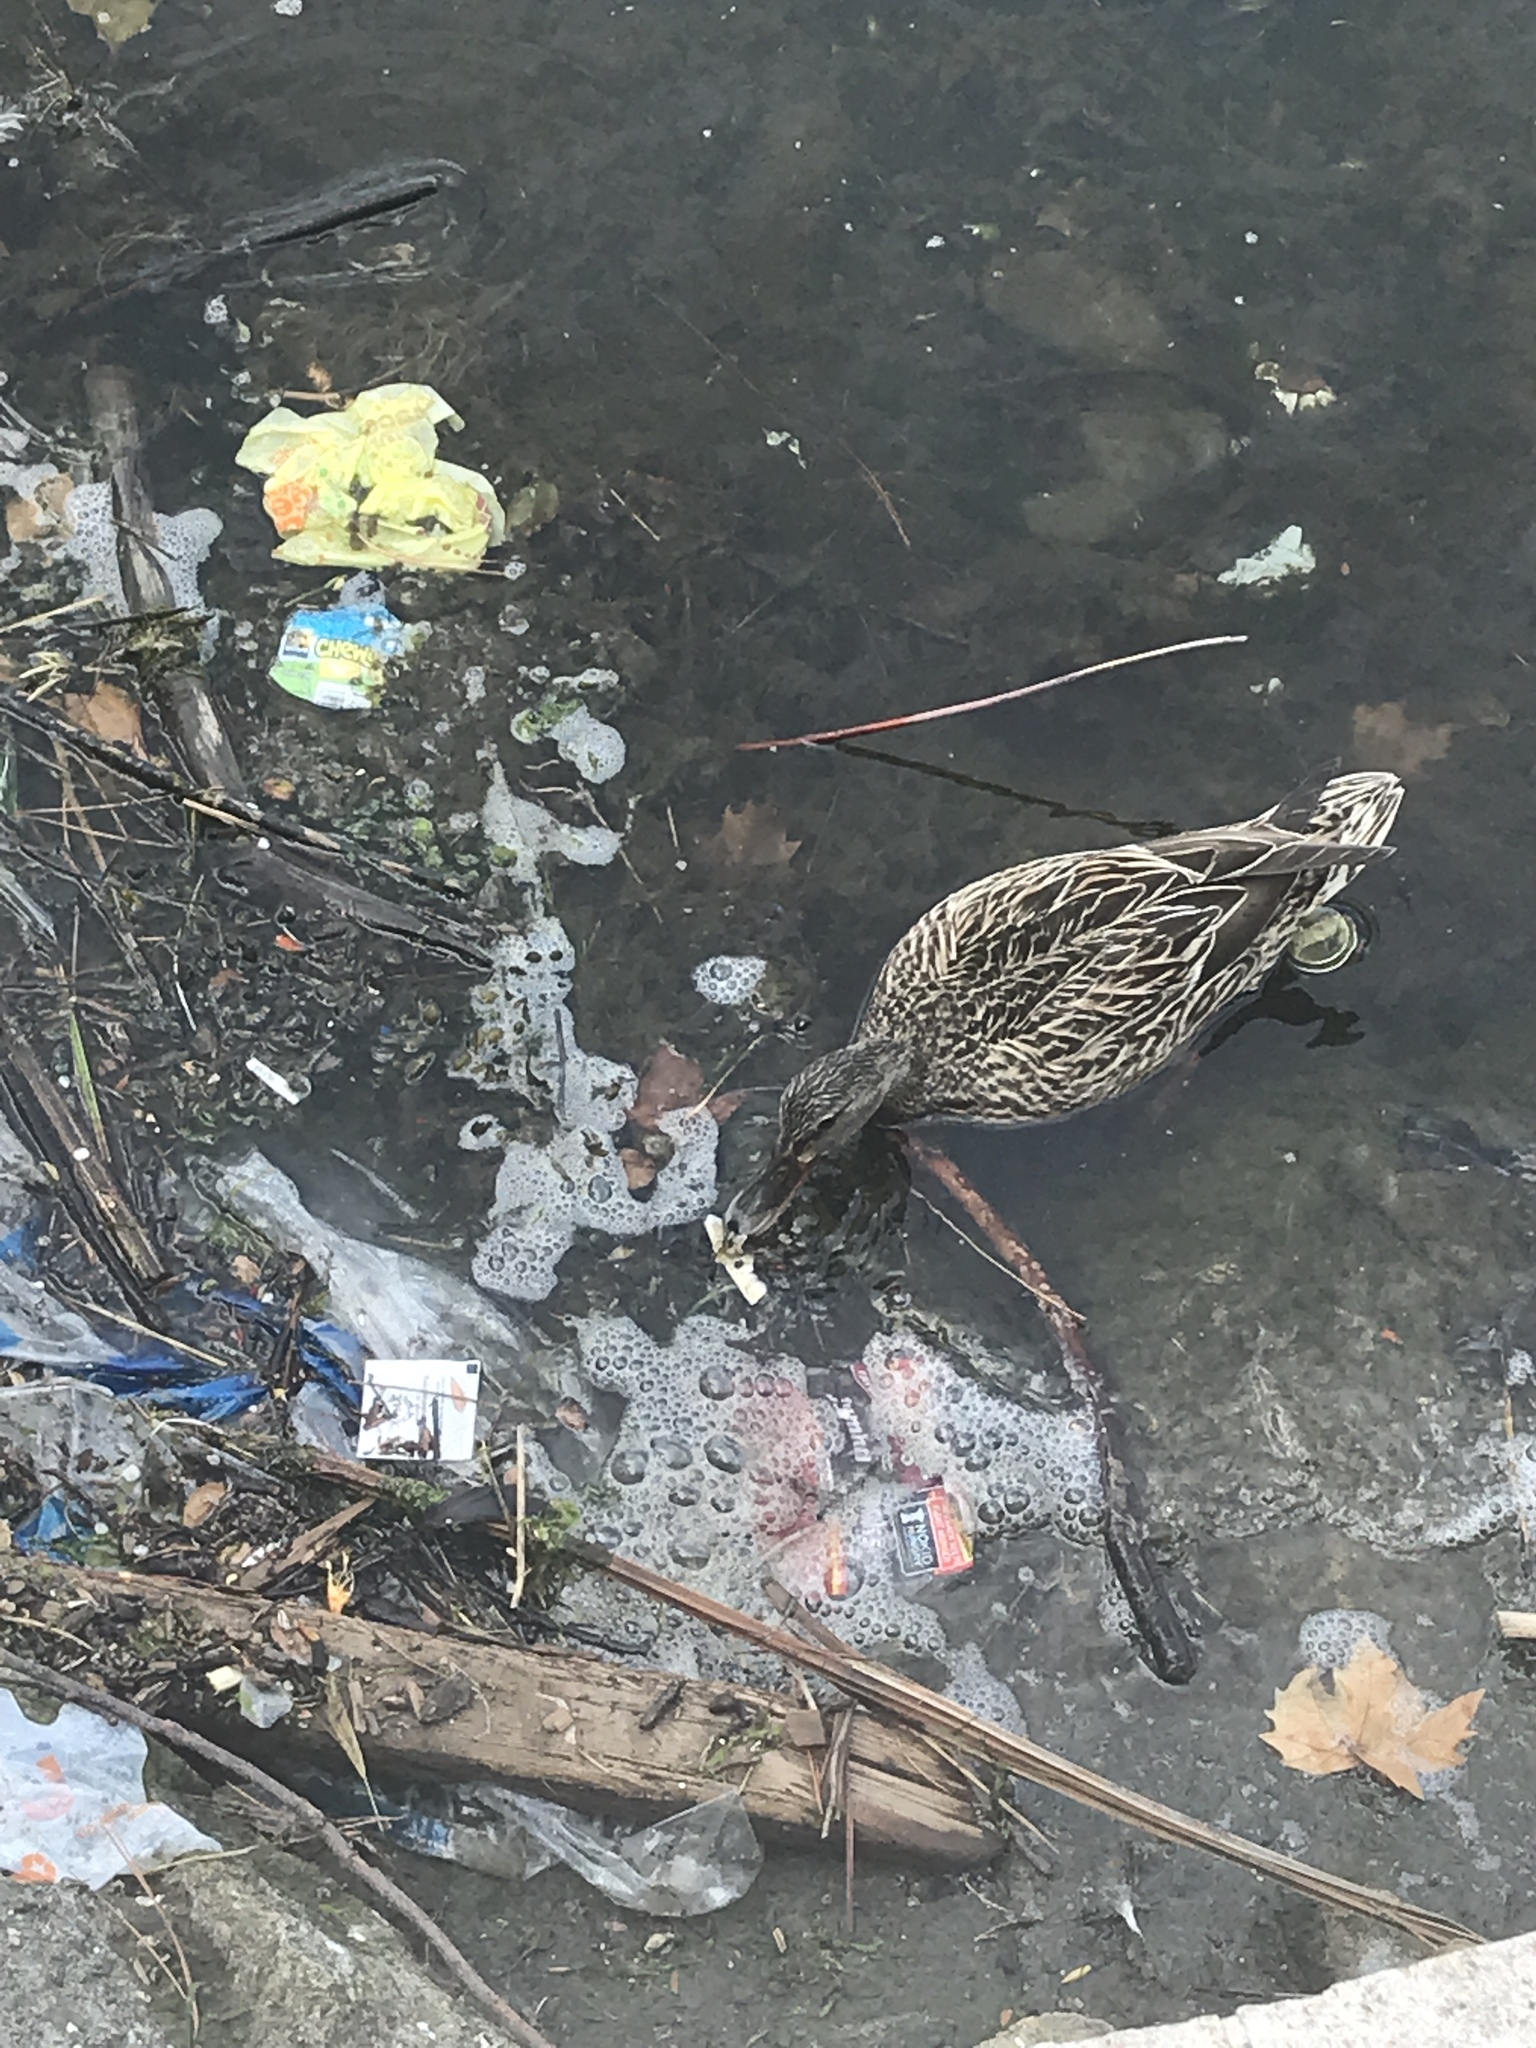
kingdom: Animalia
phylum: Chordata
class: Aves
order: Anseriformes
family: Anatidae
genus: Anas
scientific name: Anas platyrhynchos
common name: Mallard
